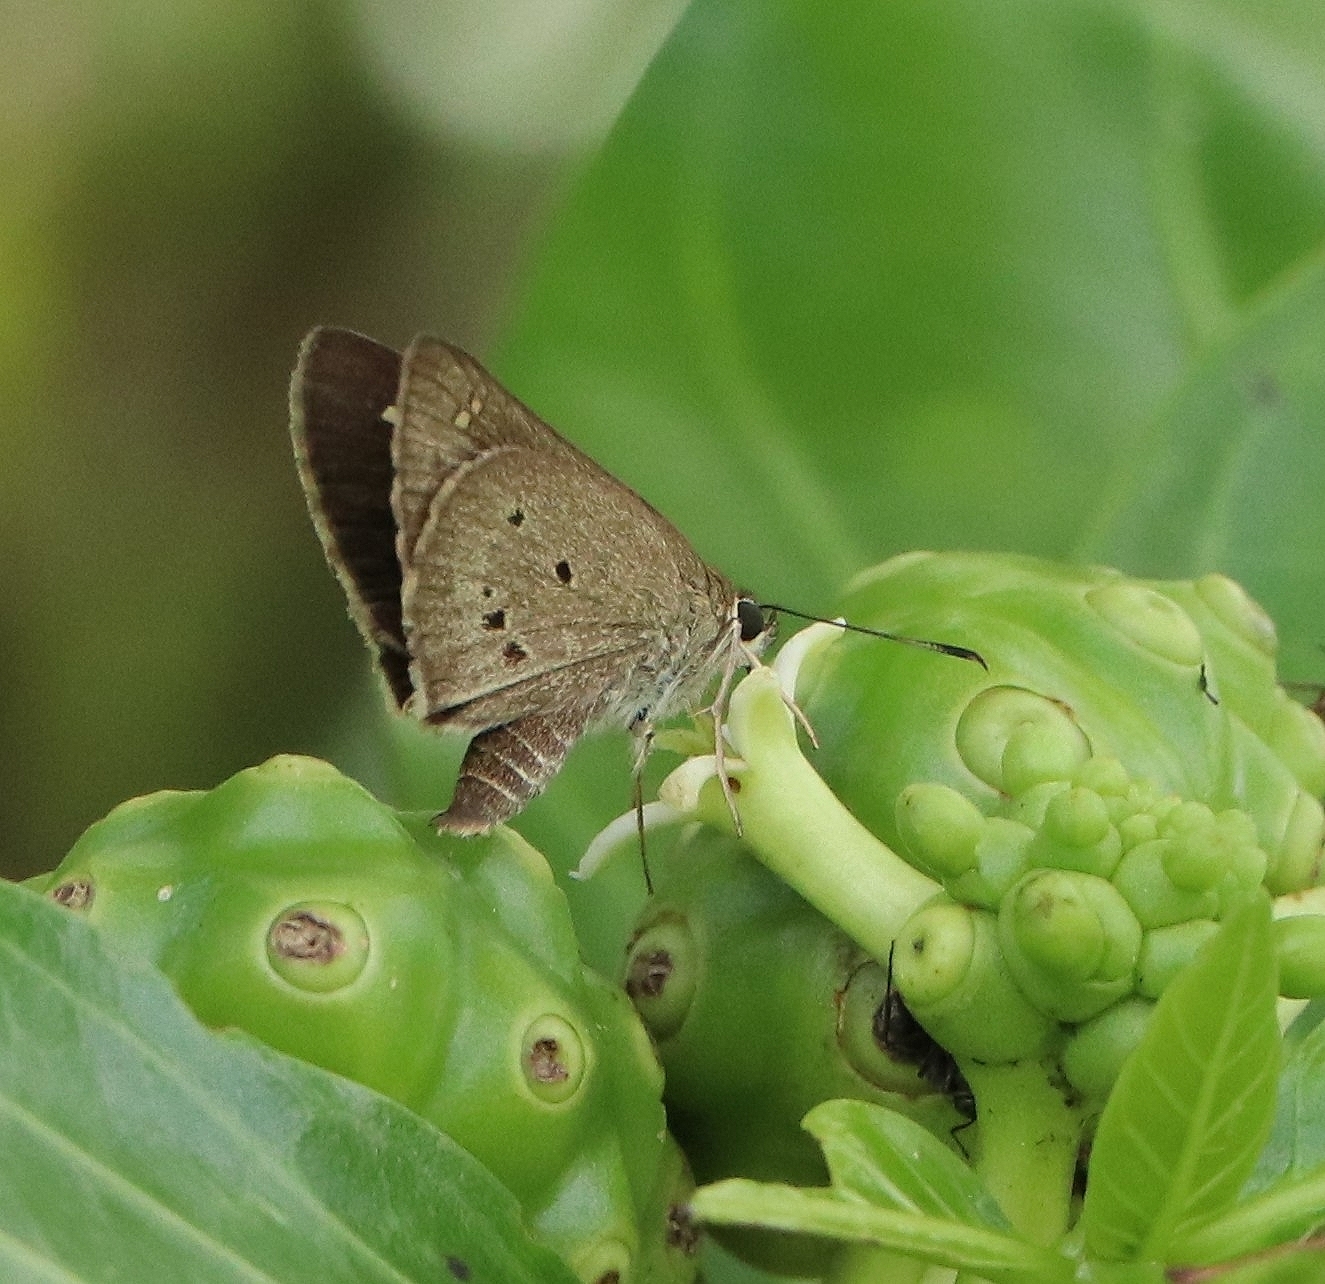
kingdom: Animalia
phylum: Arthropoda
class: Insecta
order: Lepidoptera
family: Hesperiidae
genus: Suastus
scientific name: Suastus gremius
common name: Indian palm bob
